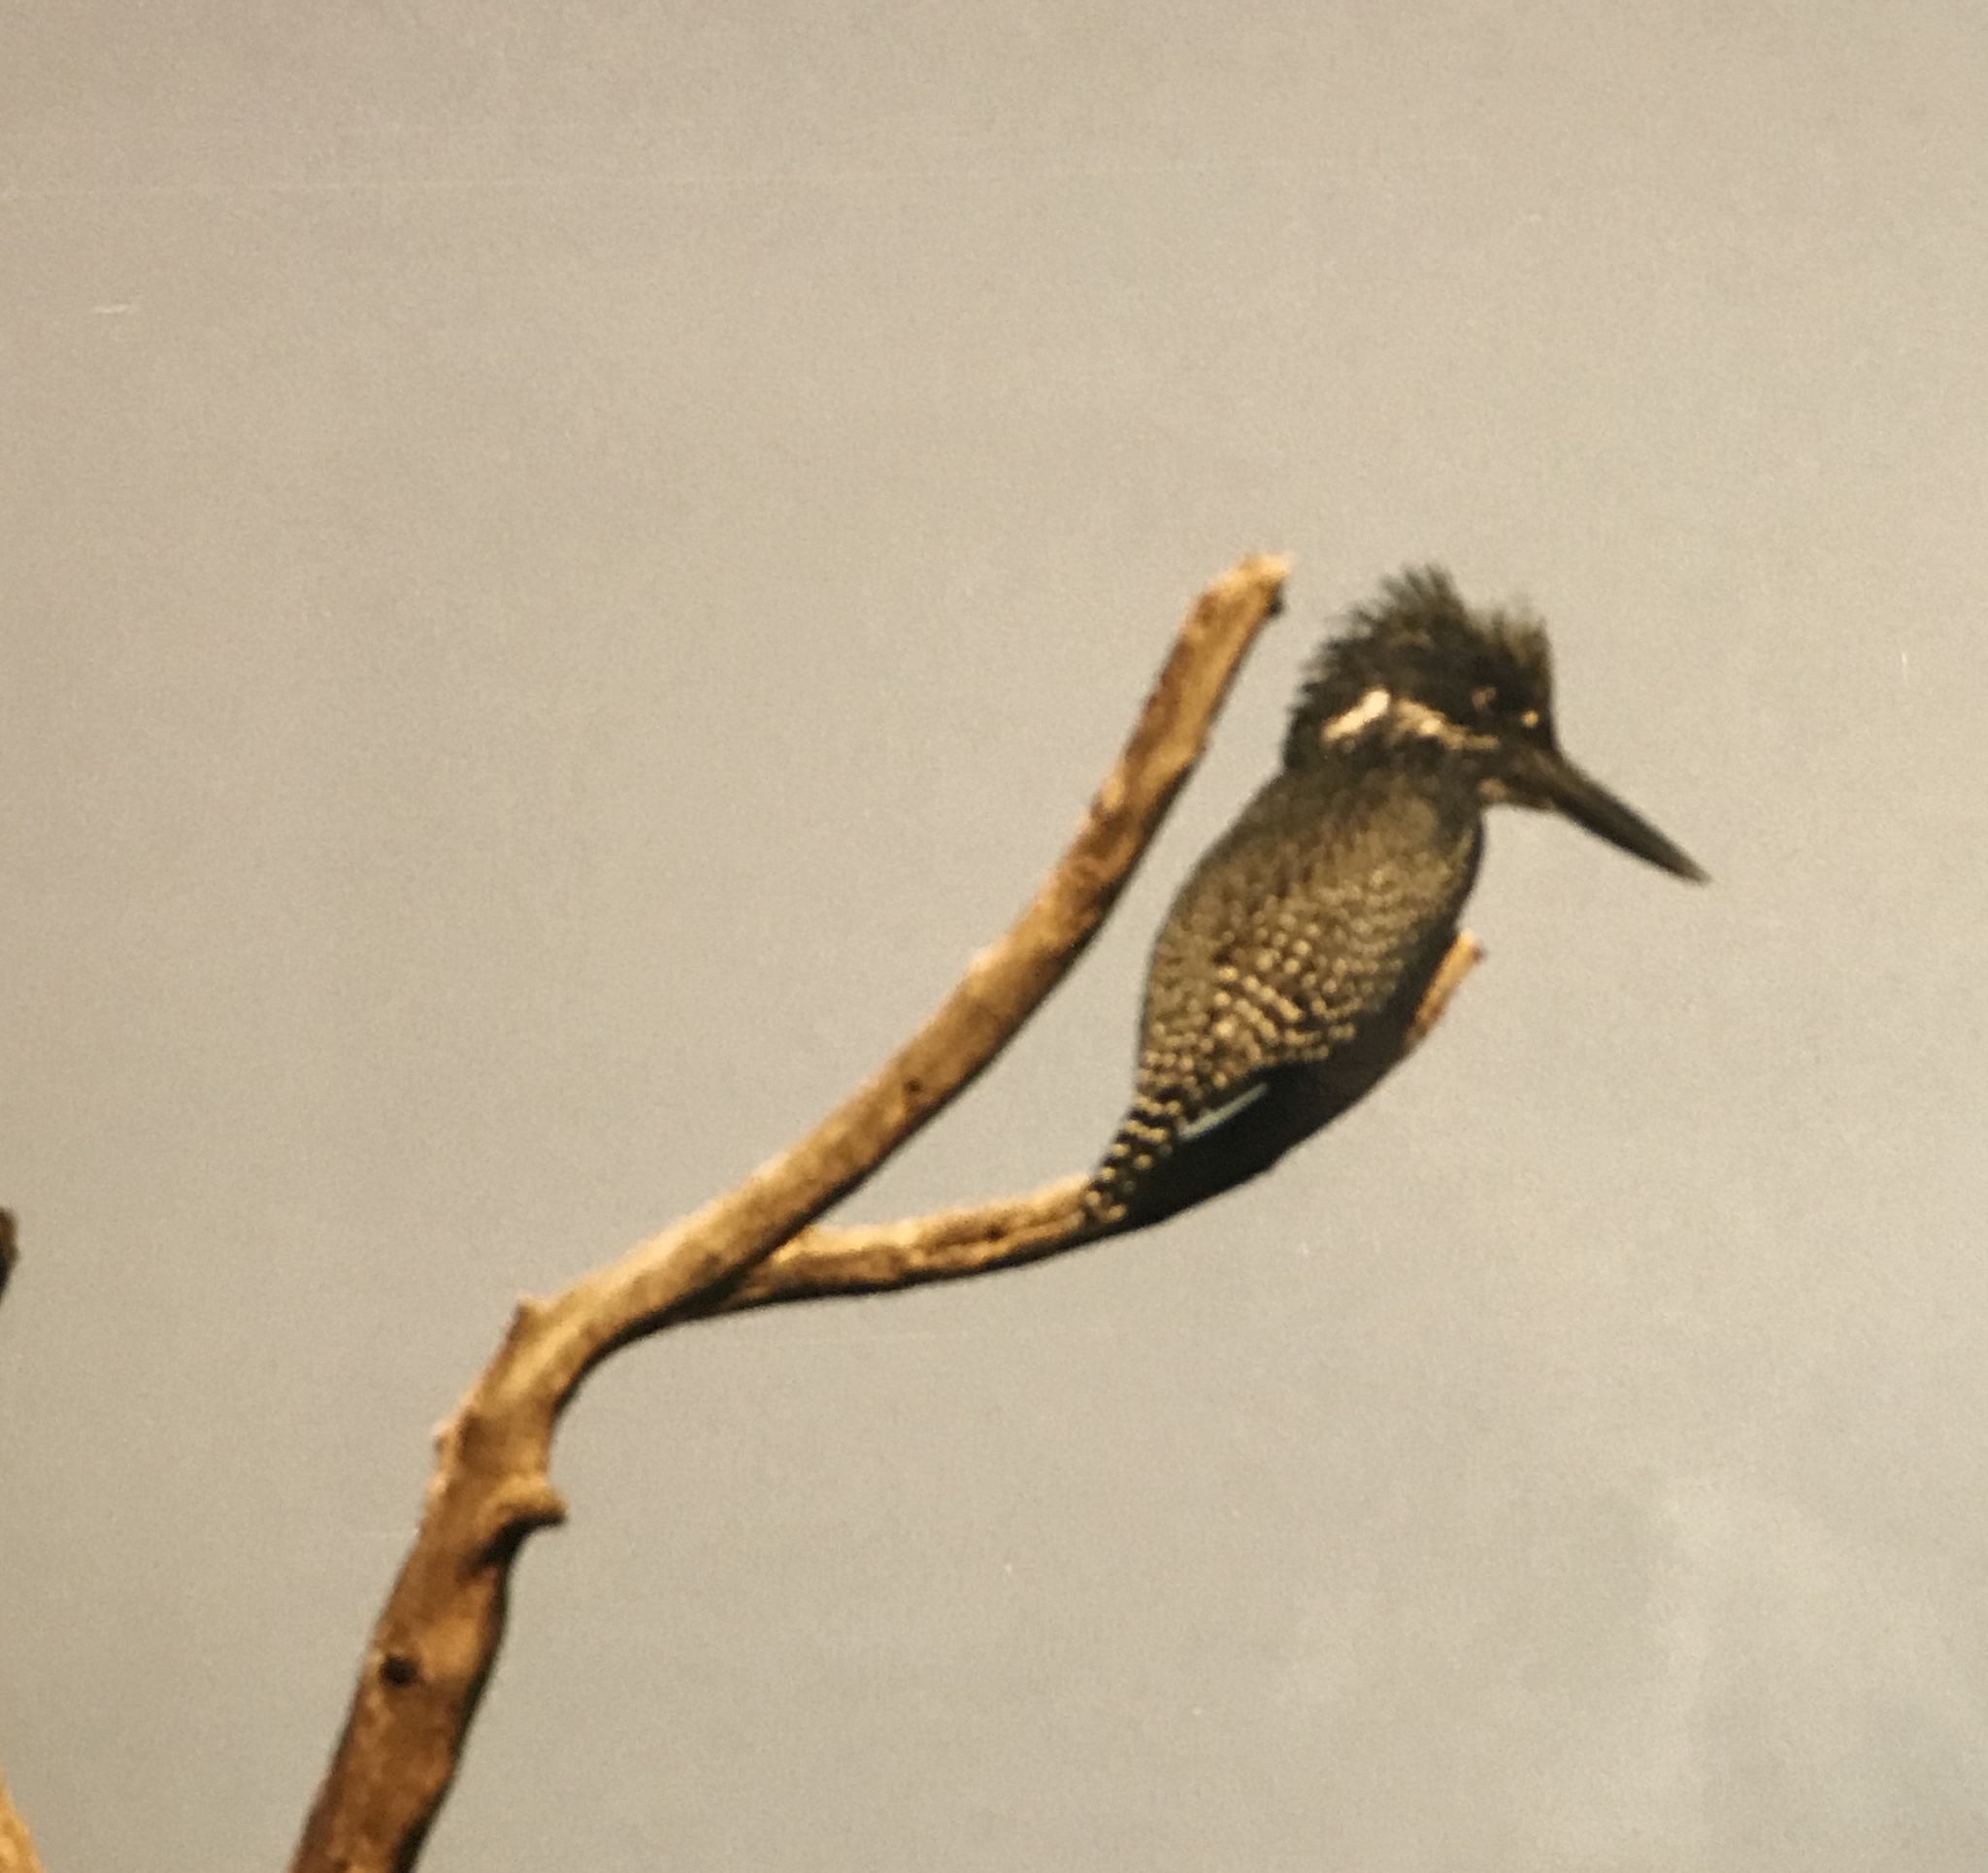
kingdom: Animalia
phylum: Chordata
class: Aves
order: Coraciiformes
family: Alcedinidae
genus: Megaceryle
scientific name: Megaceryle maxima
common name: Giant kingfisher
